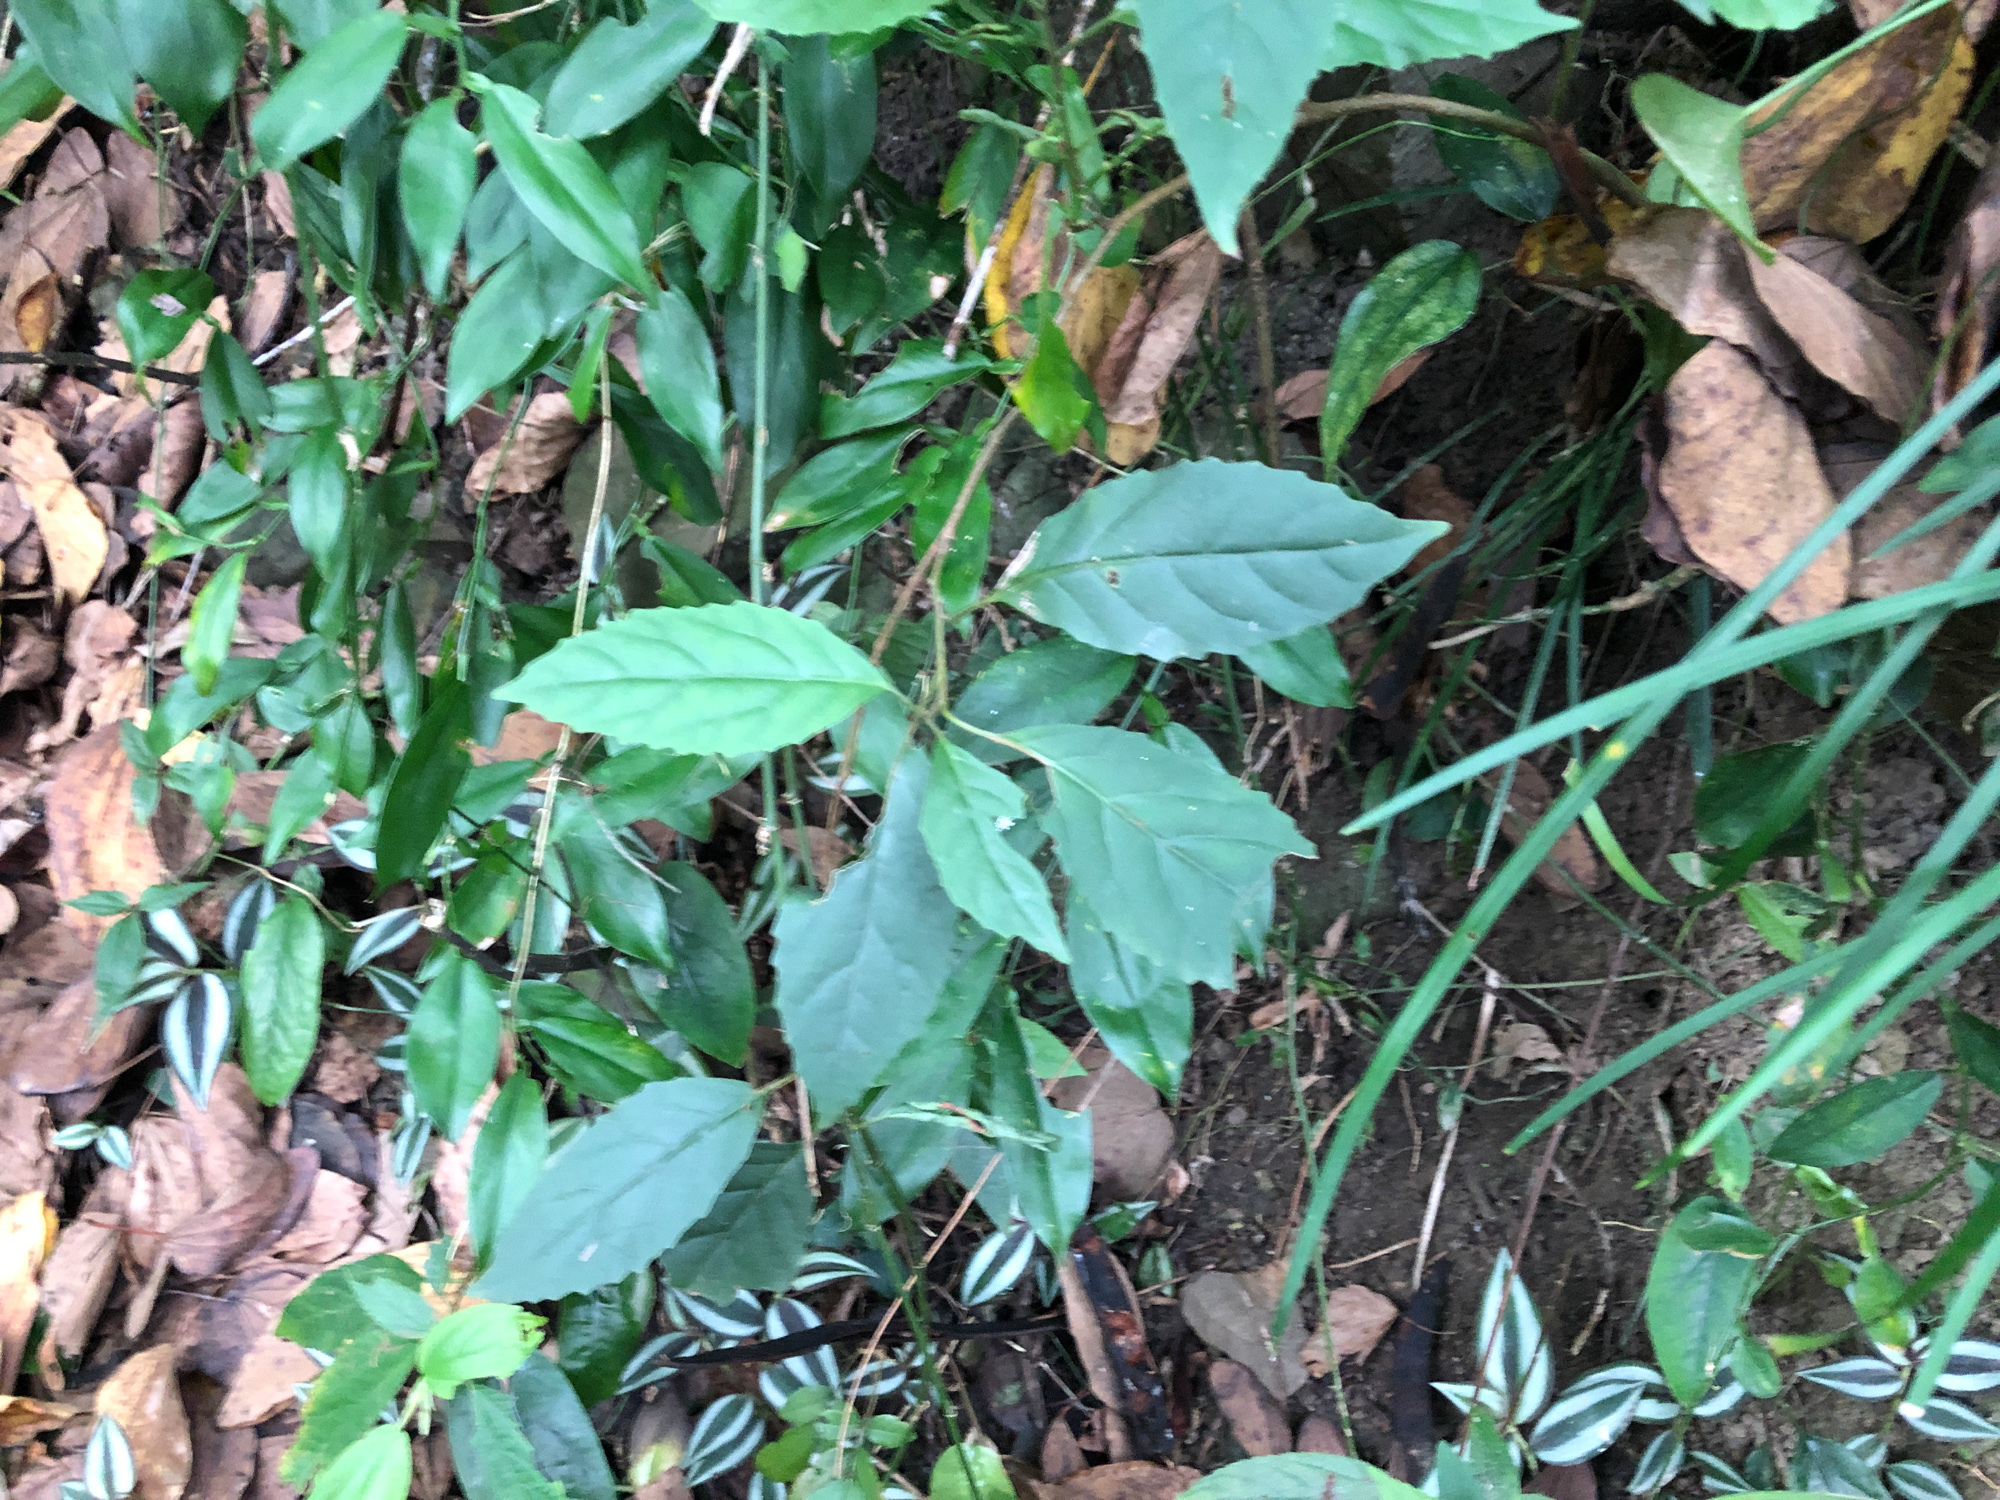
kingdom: Plantae
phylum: Tracheophyta
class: Magnoliopsida
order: Ericales
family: Primulaceae
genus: Maesa
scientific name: Maesa perlaria
